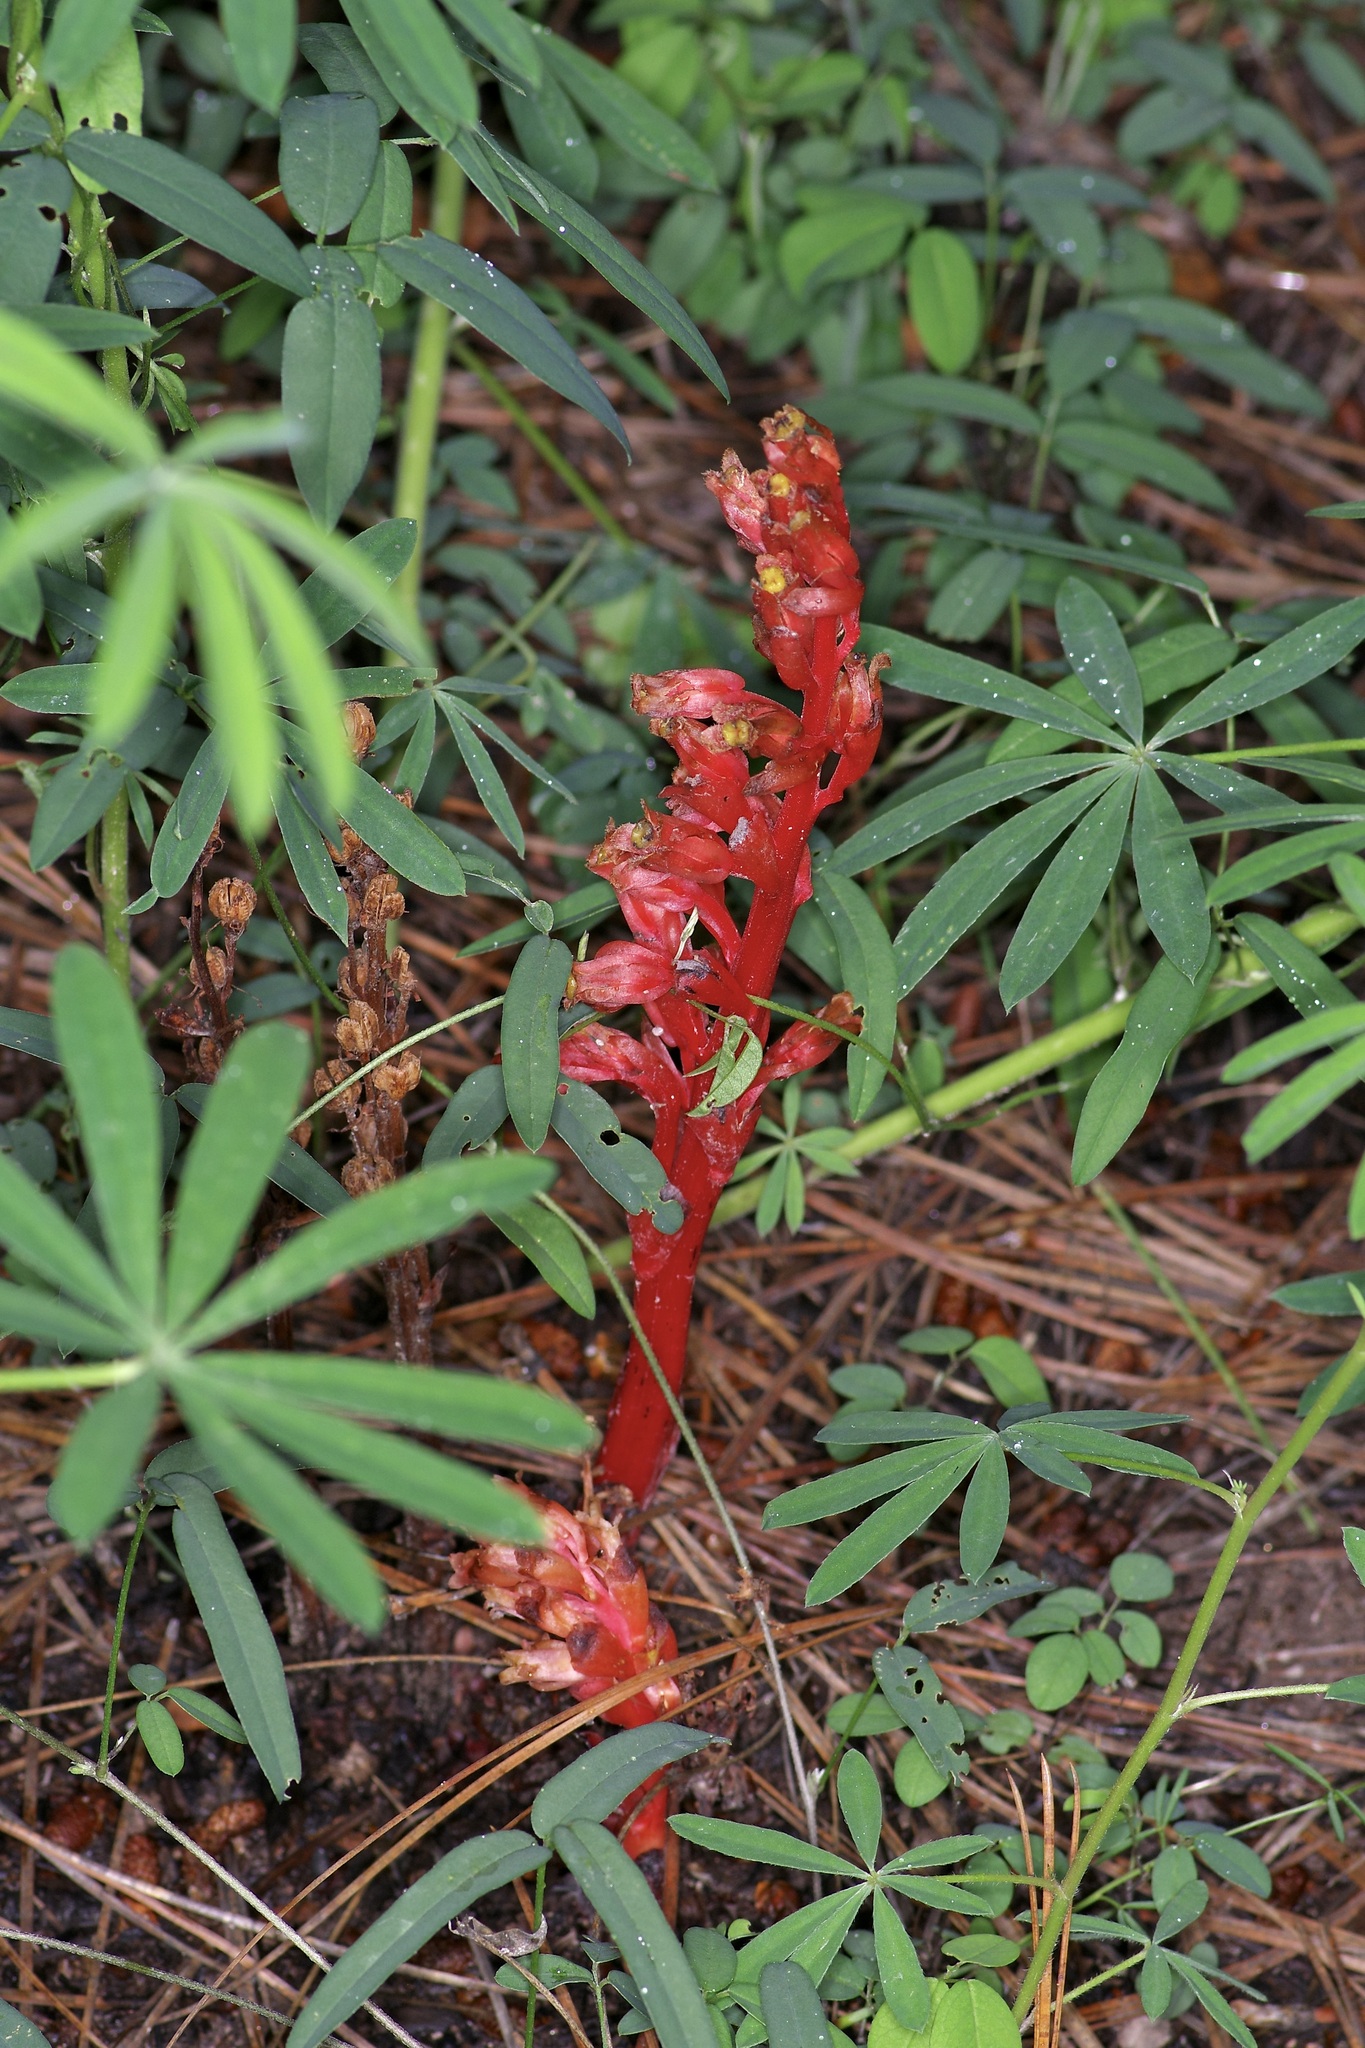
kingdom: Plantae
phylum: Tracheophyta
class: Magnoliopsida
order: Ericales
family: Ericaceae
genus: Hypopitys
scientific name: Hypopitys monotropa
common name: Yellow bird's-nest
